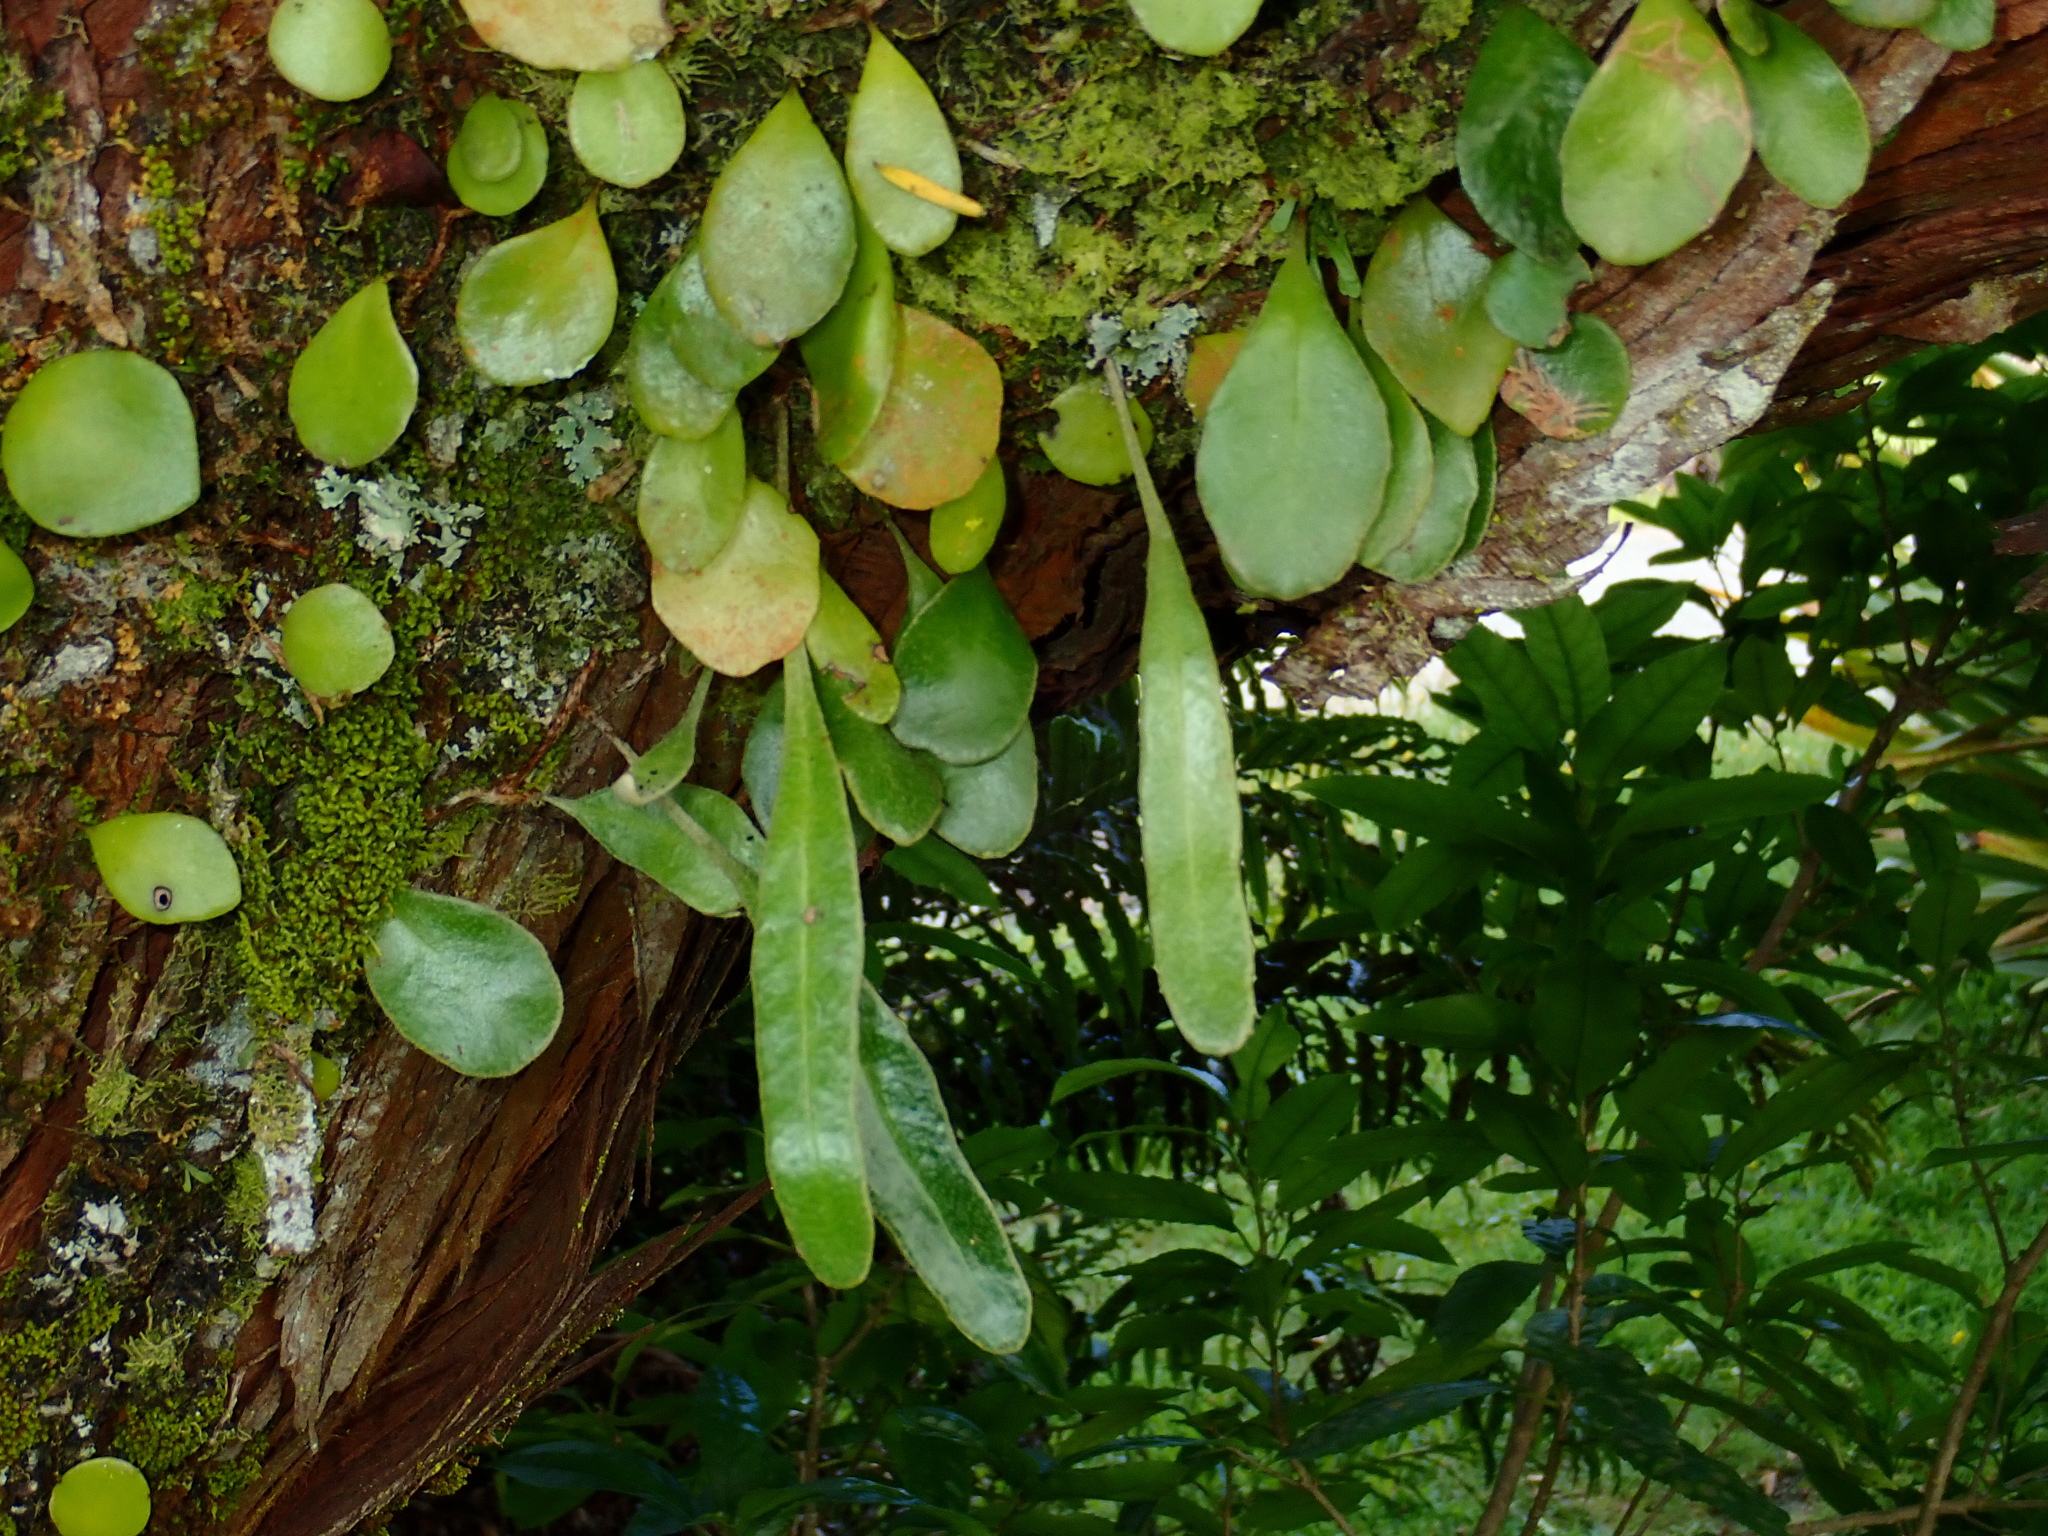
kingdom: Plantae
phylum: Tracheophyta
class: Polypodiopsida
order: Polypodiales
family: Polypodiaceae
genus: Pyrrosia
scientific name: Pyrrosia eleagnifolia
